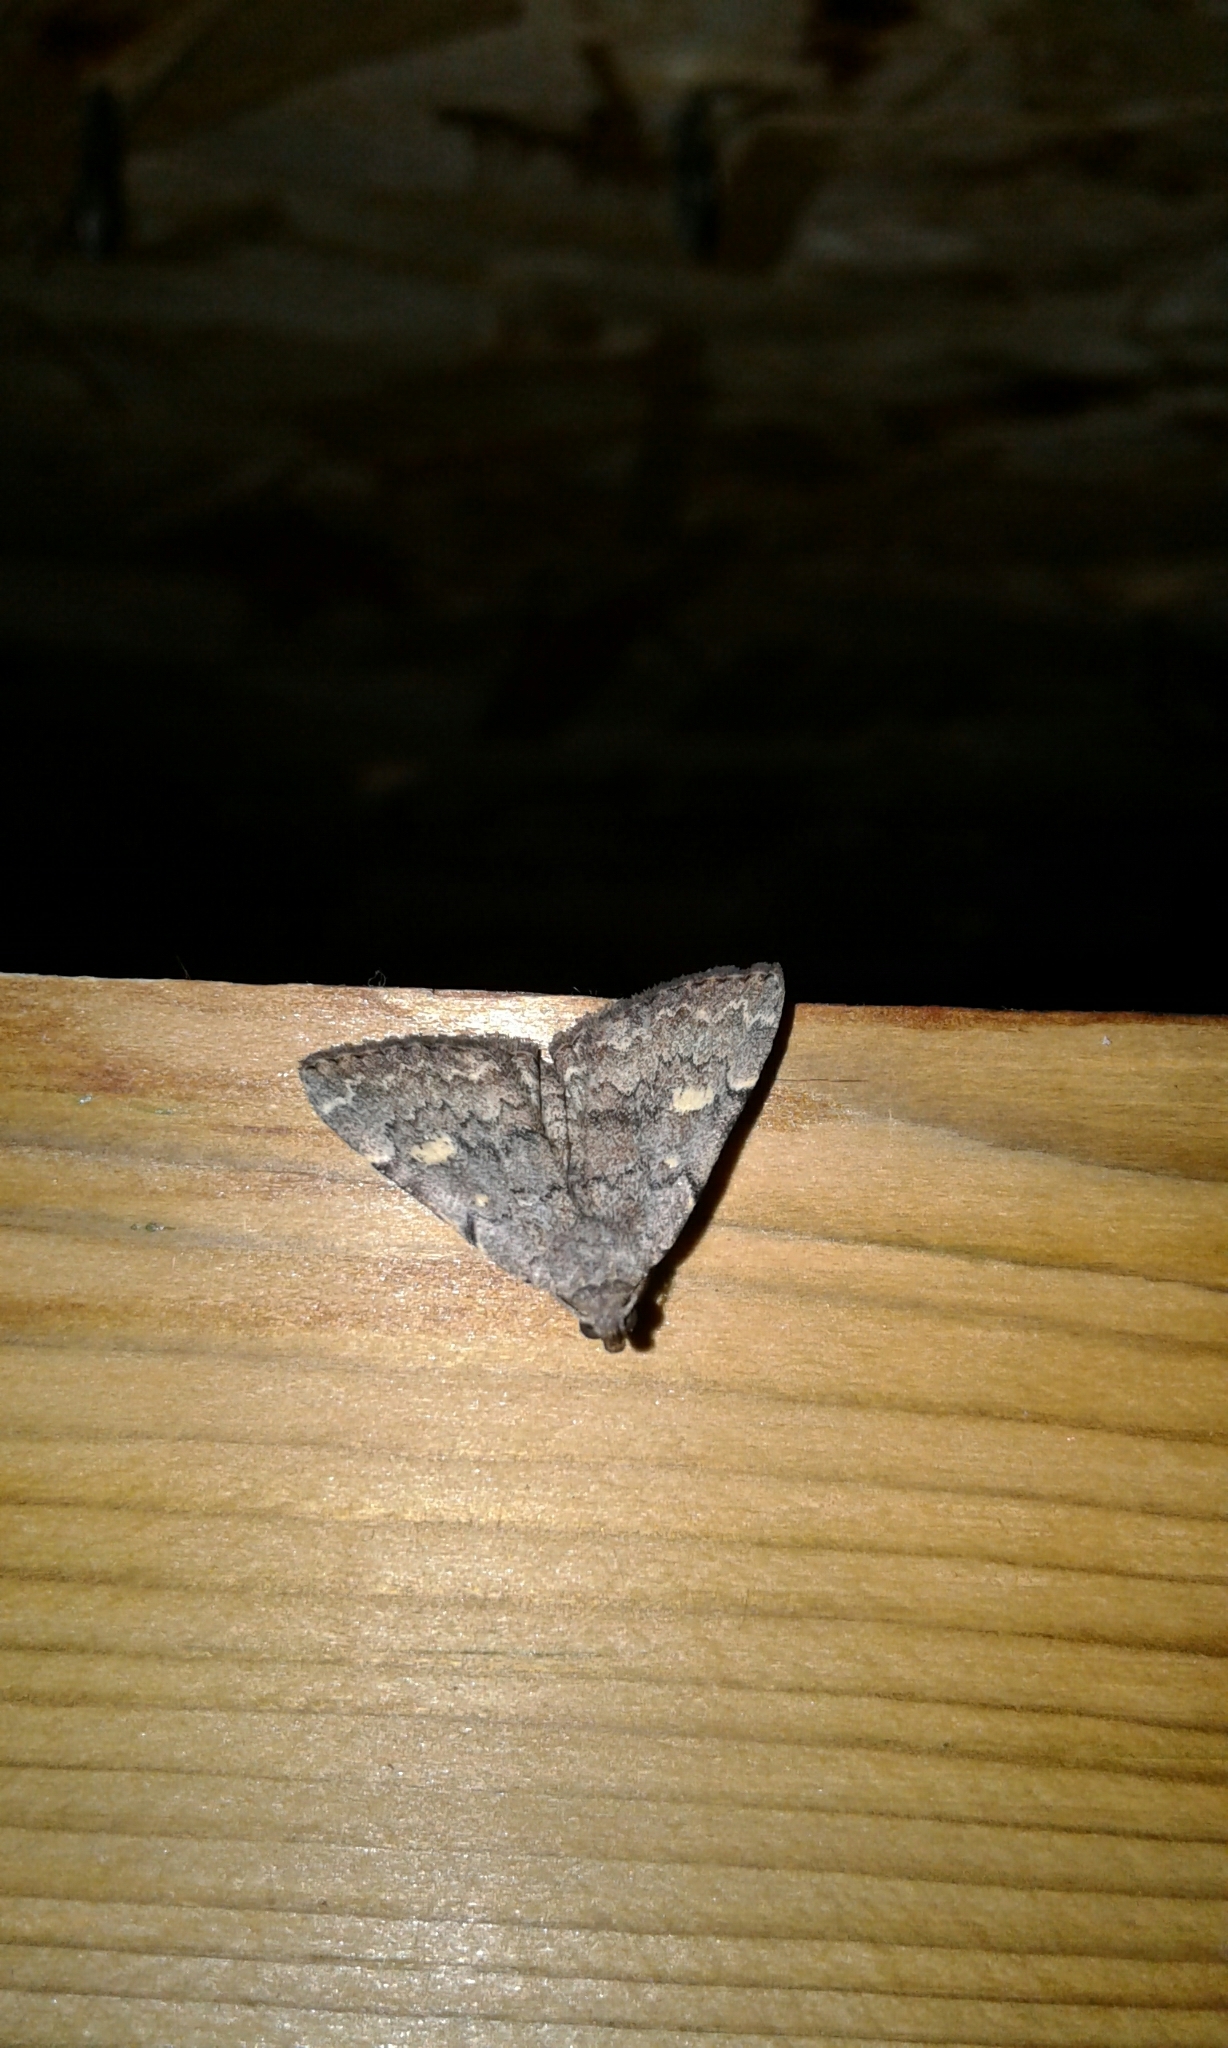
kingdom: Animalia
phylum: Arthropoda
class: Insecta
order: Lepidoptera
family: Erebidae
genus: Idia
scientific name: Idia aemula
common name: Common idia moth
